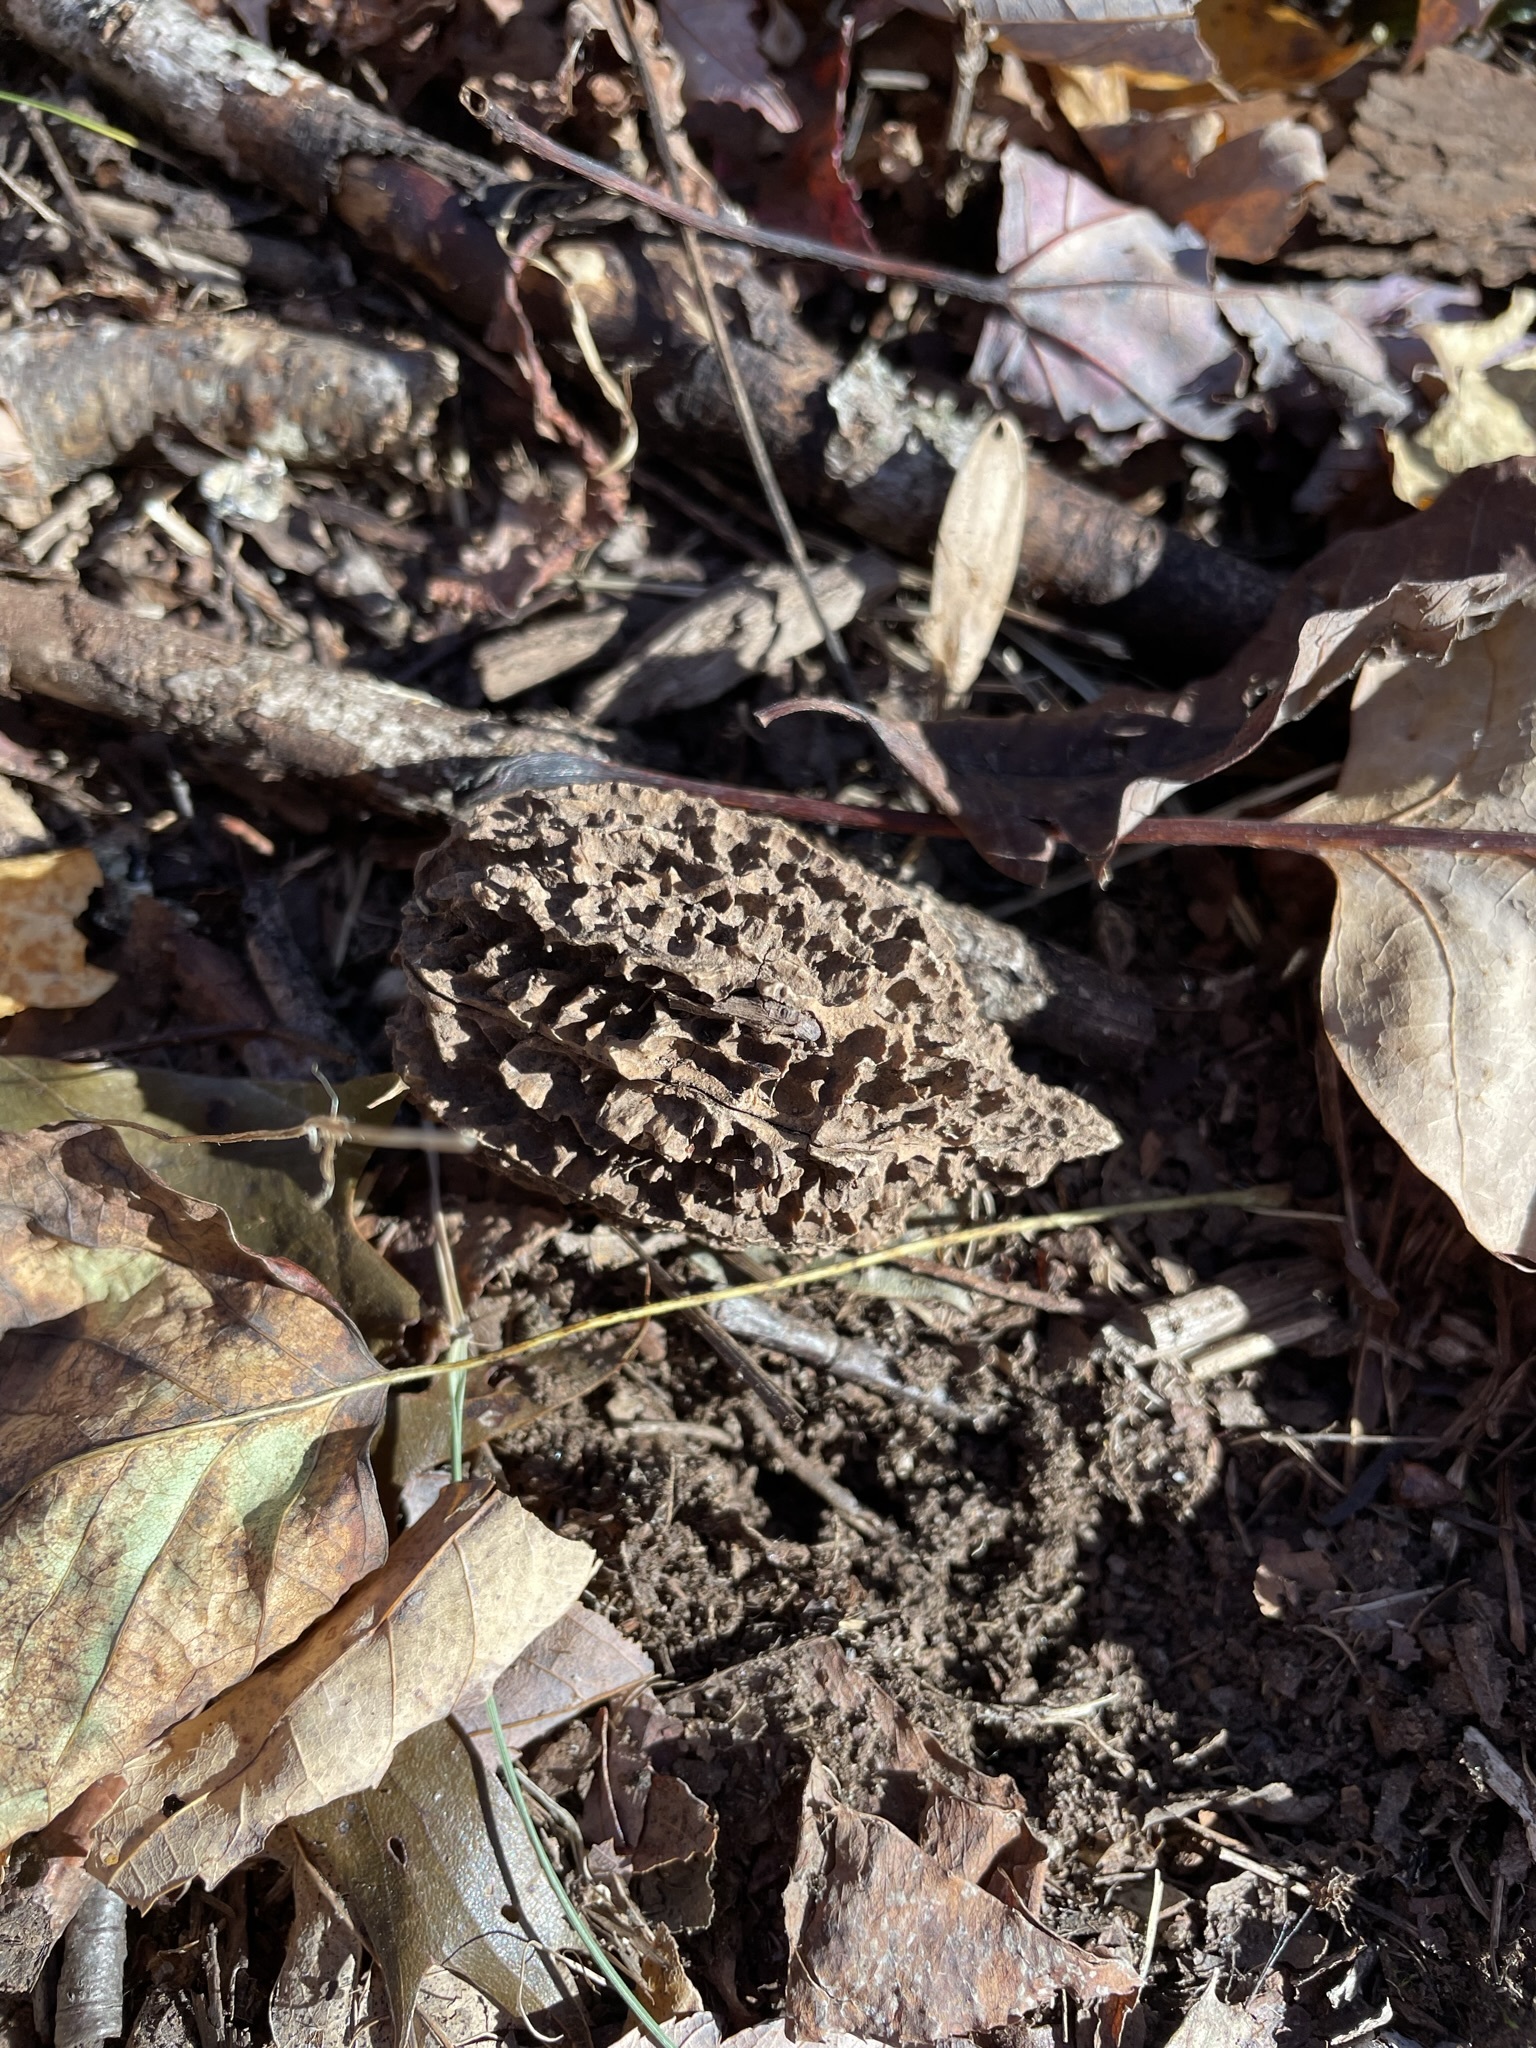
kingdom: Plantae
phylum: Tracheophyta
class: Magnoliopsida
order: Fagales
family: Juglandaceae
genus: Juglans
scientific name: Juglans cinerea
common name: Butternut
